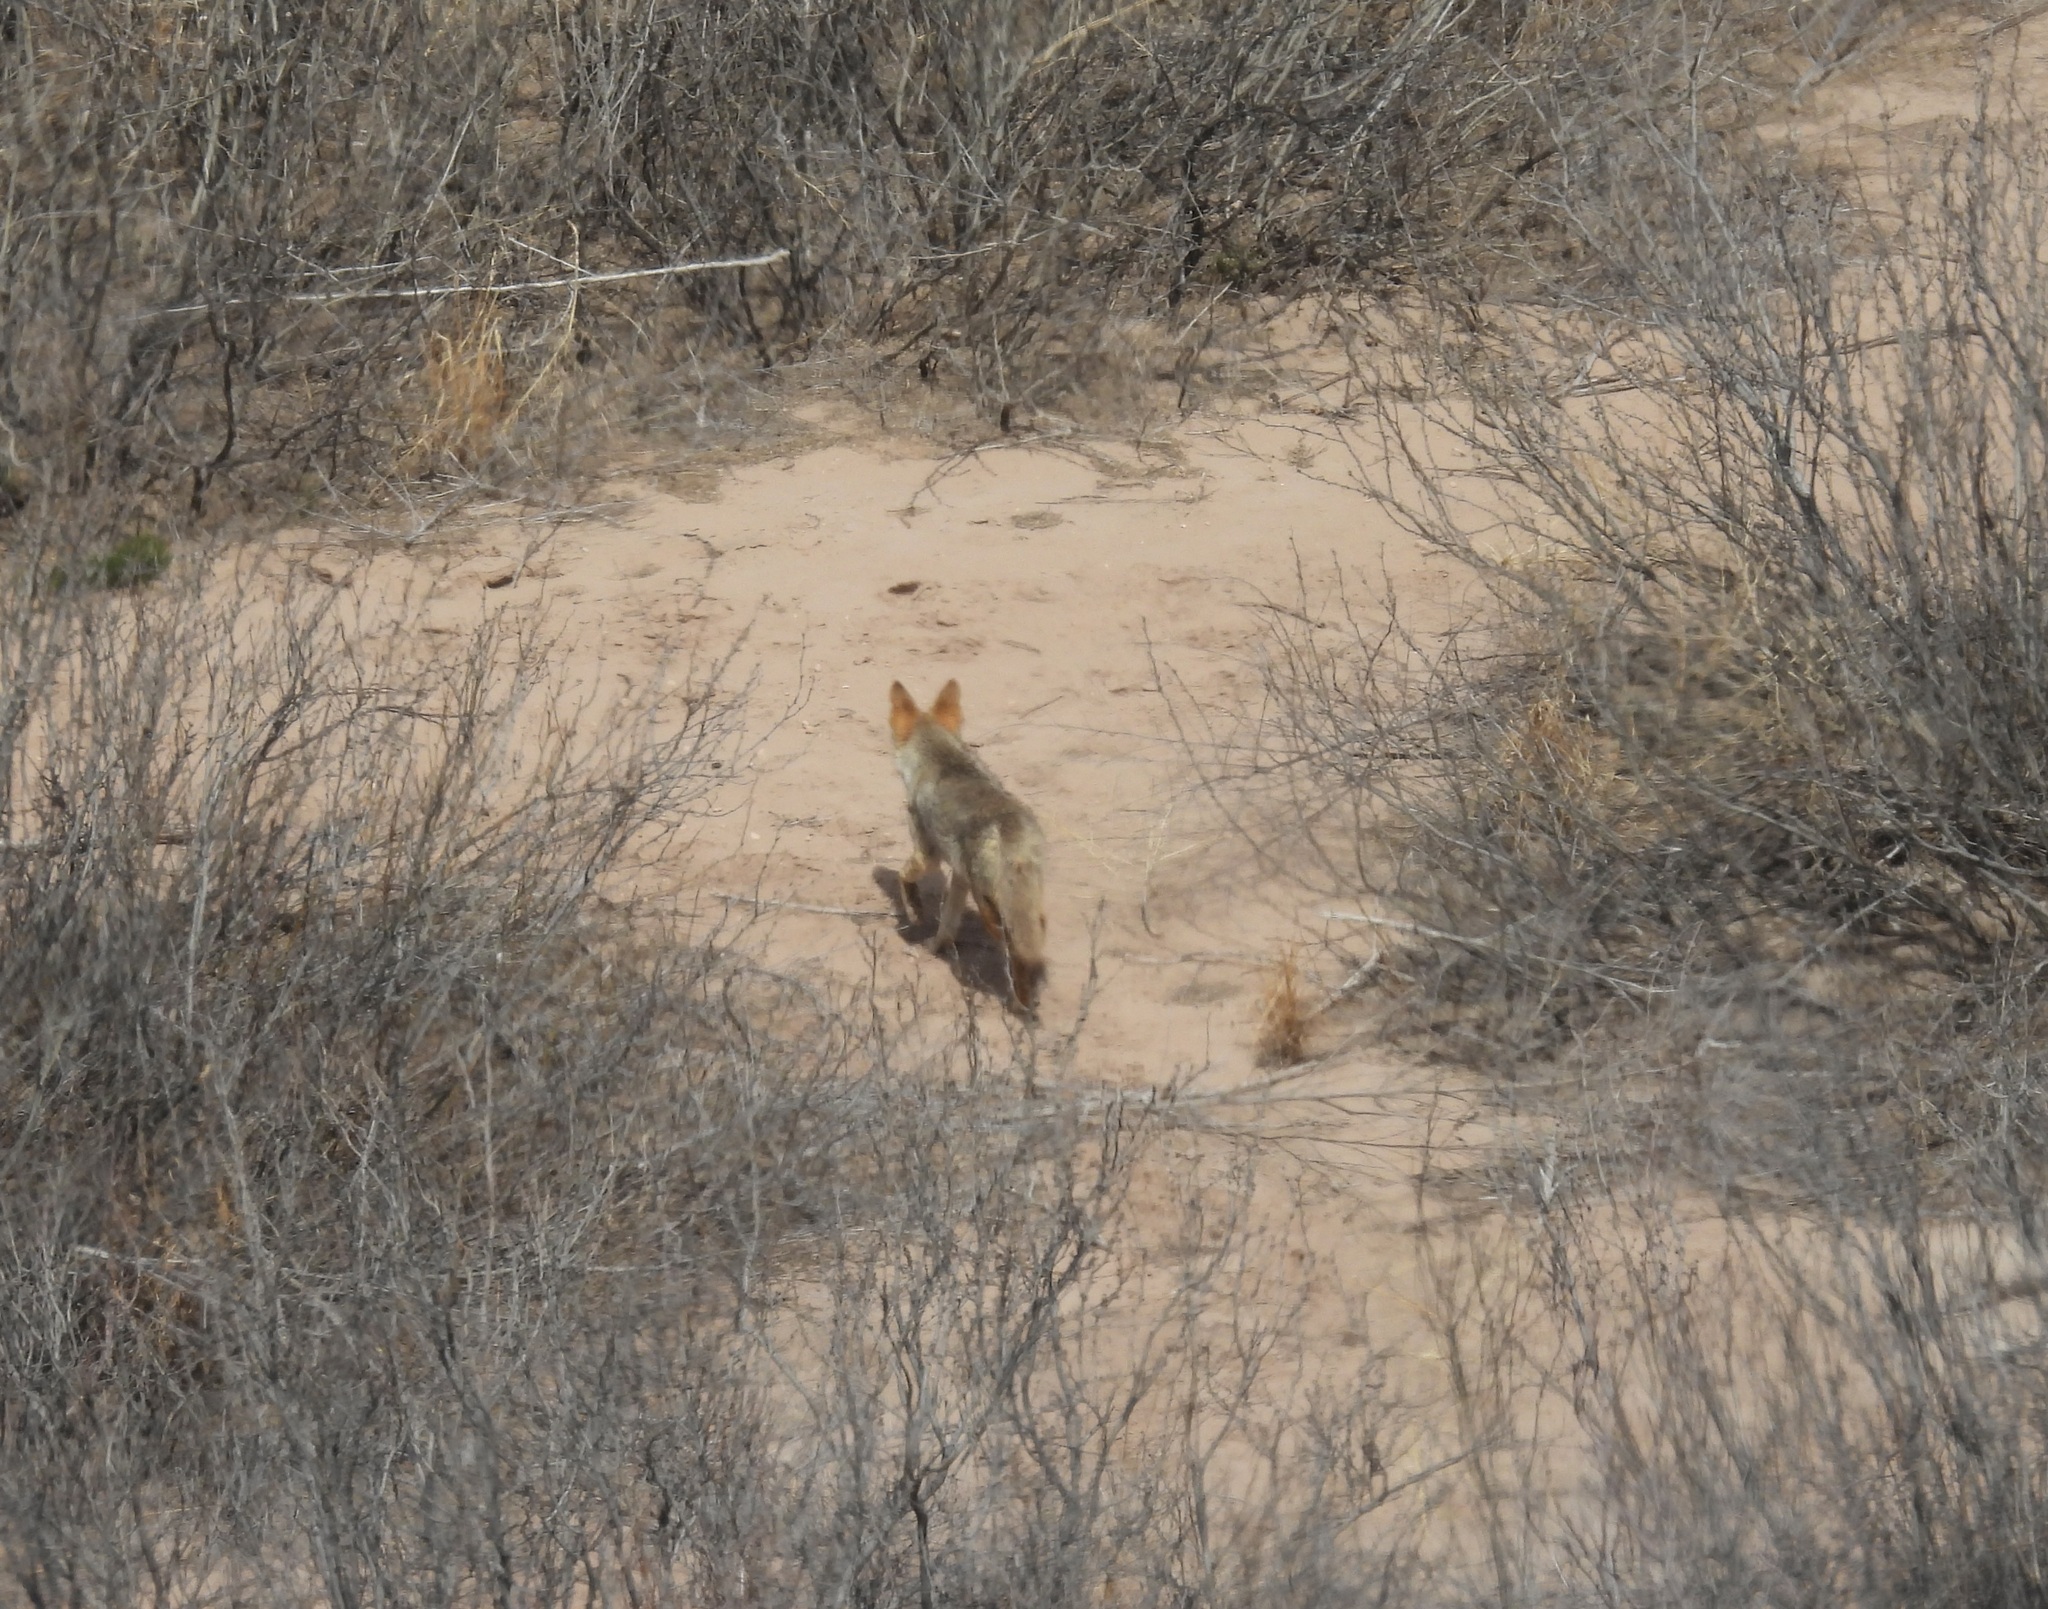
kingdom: Animalia
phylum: Chordata
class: Mammalia
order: Carnivora
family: Canidae
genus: Canis
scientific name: Canis latrans
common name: Coyote
